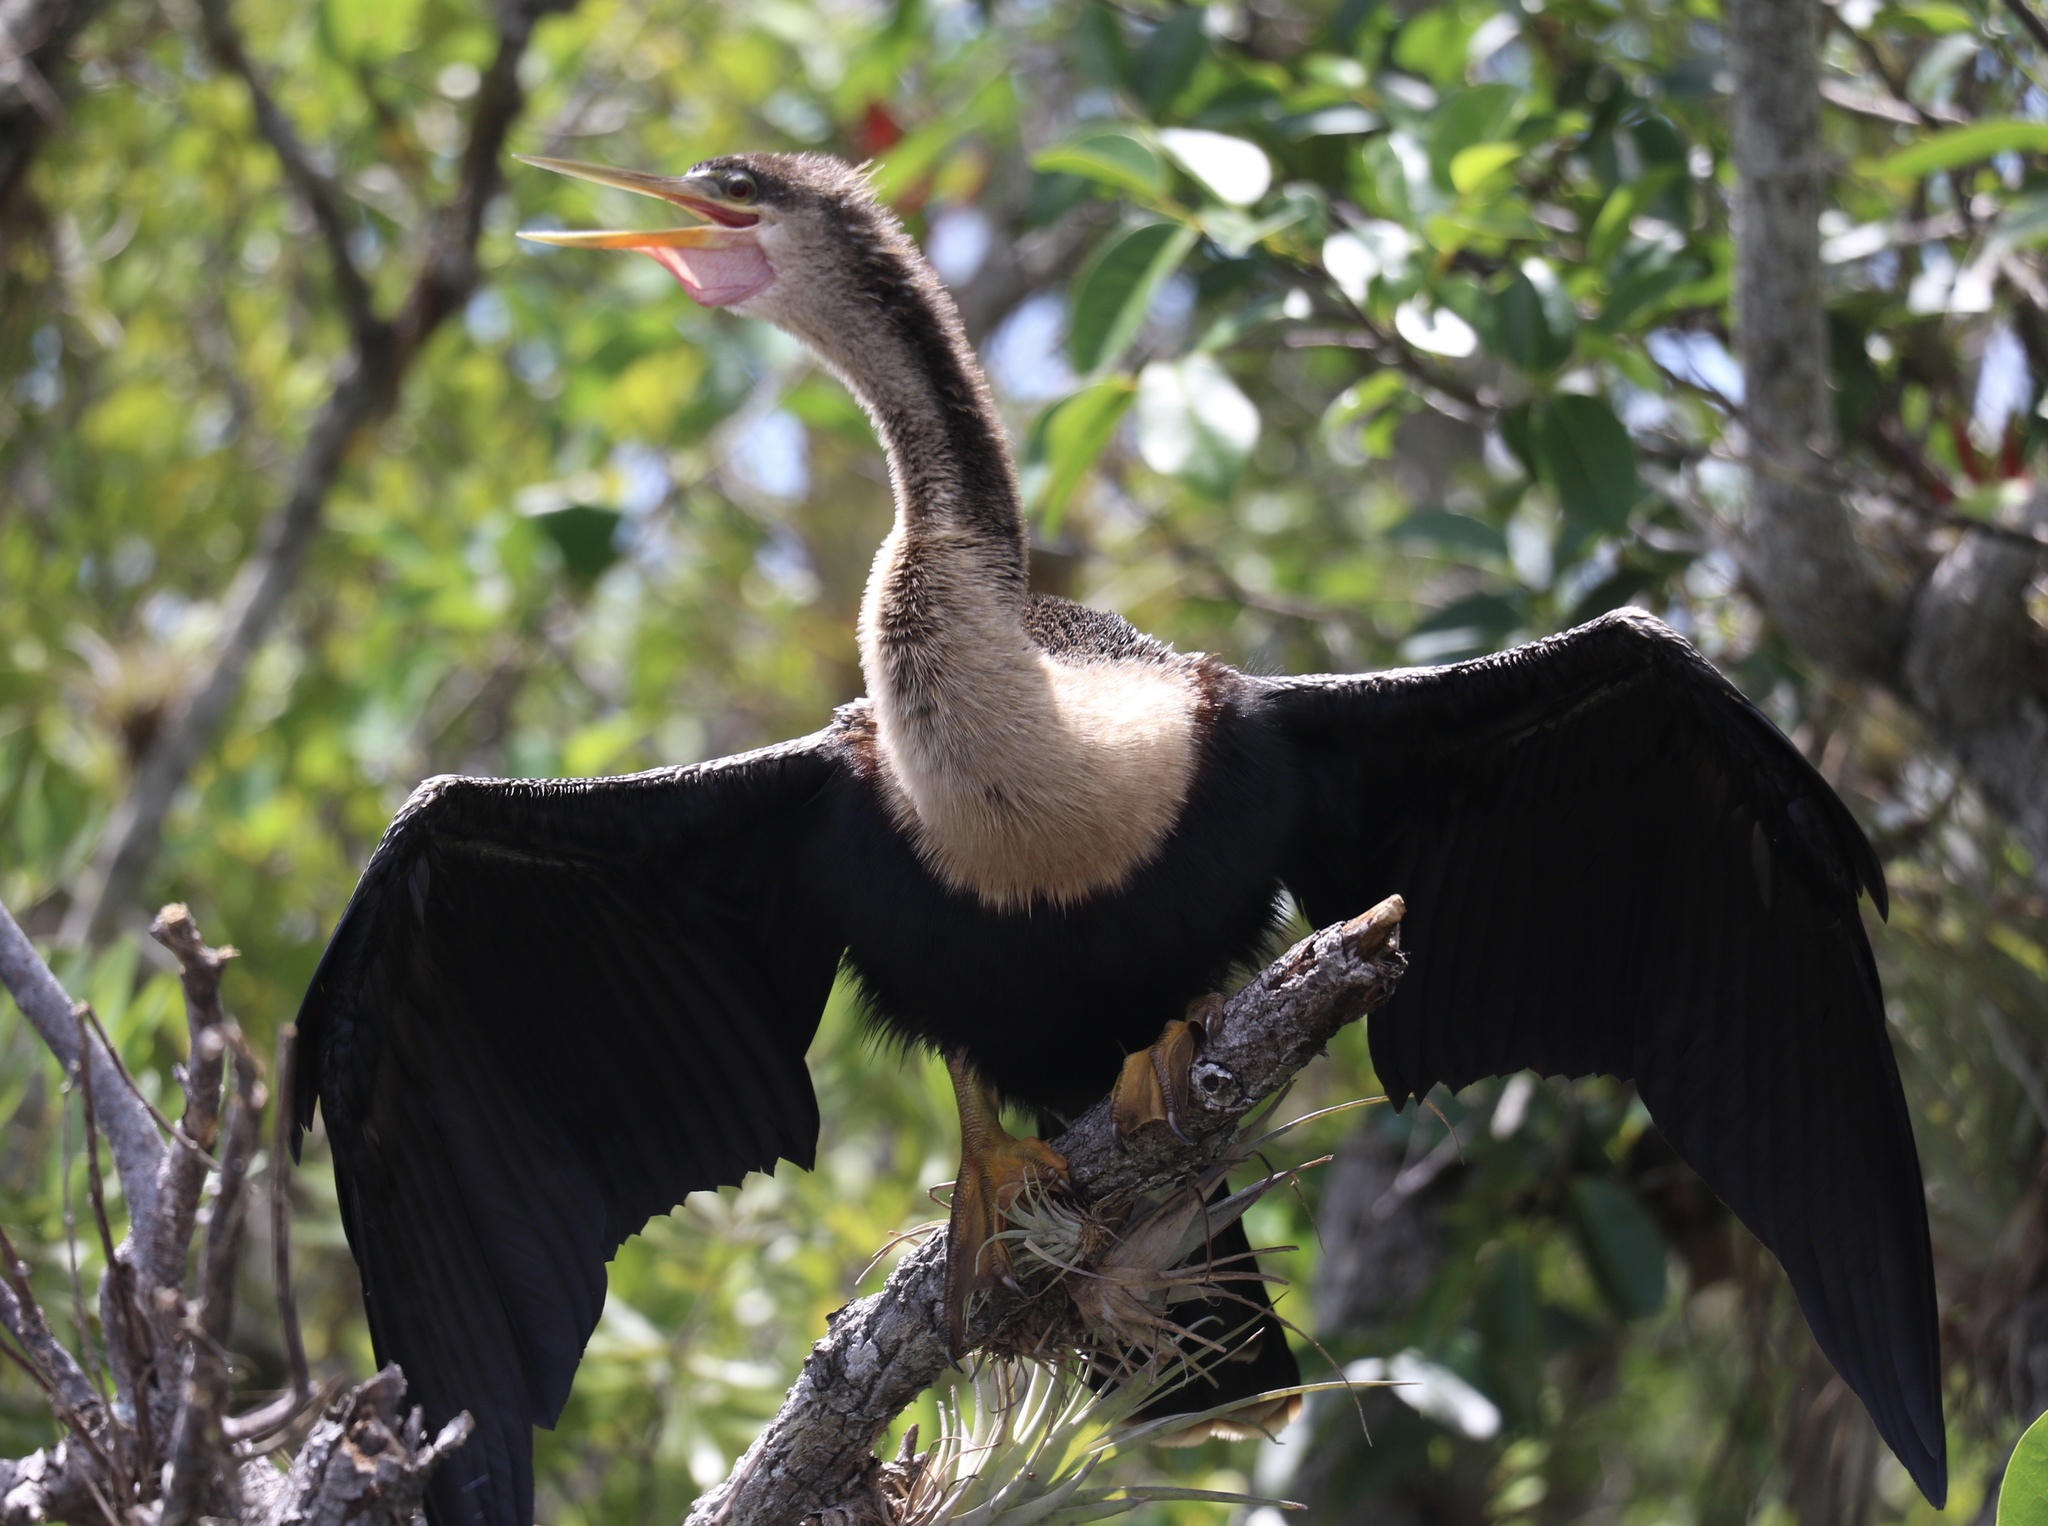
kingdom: Animalia
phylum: Chordata
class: Aves
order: Suliformes
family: Anhingidae
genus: Anhinga
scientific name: Anhinga anhinga
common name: Anhinga
